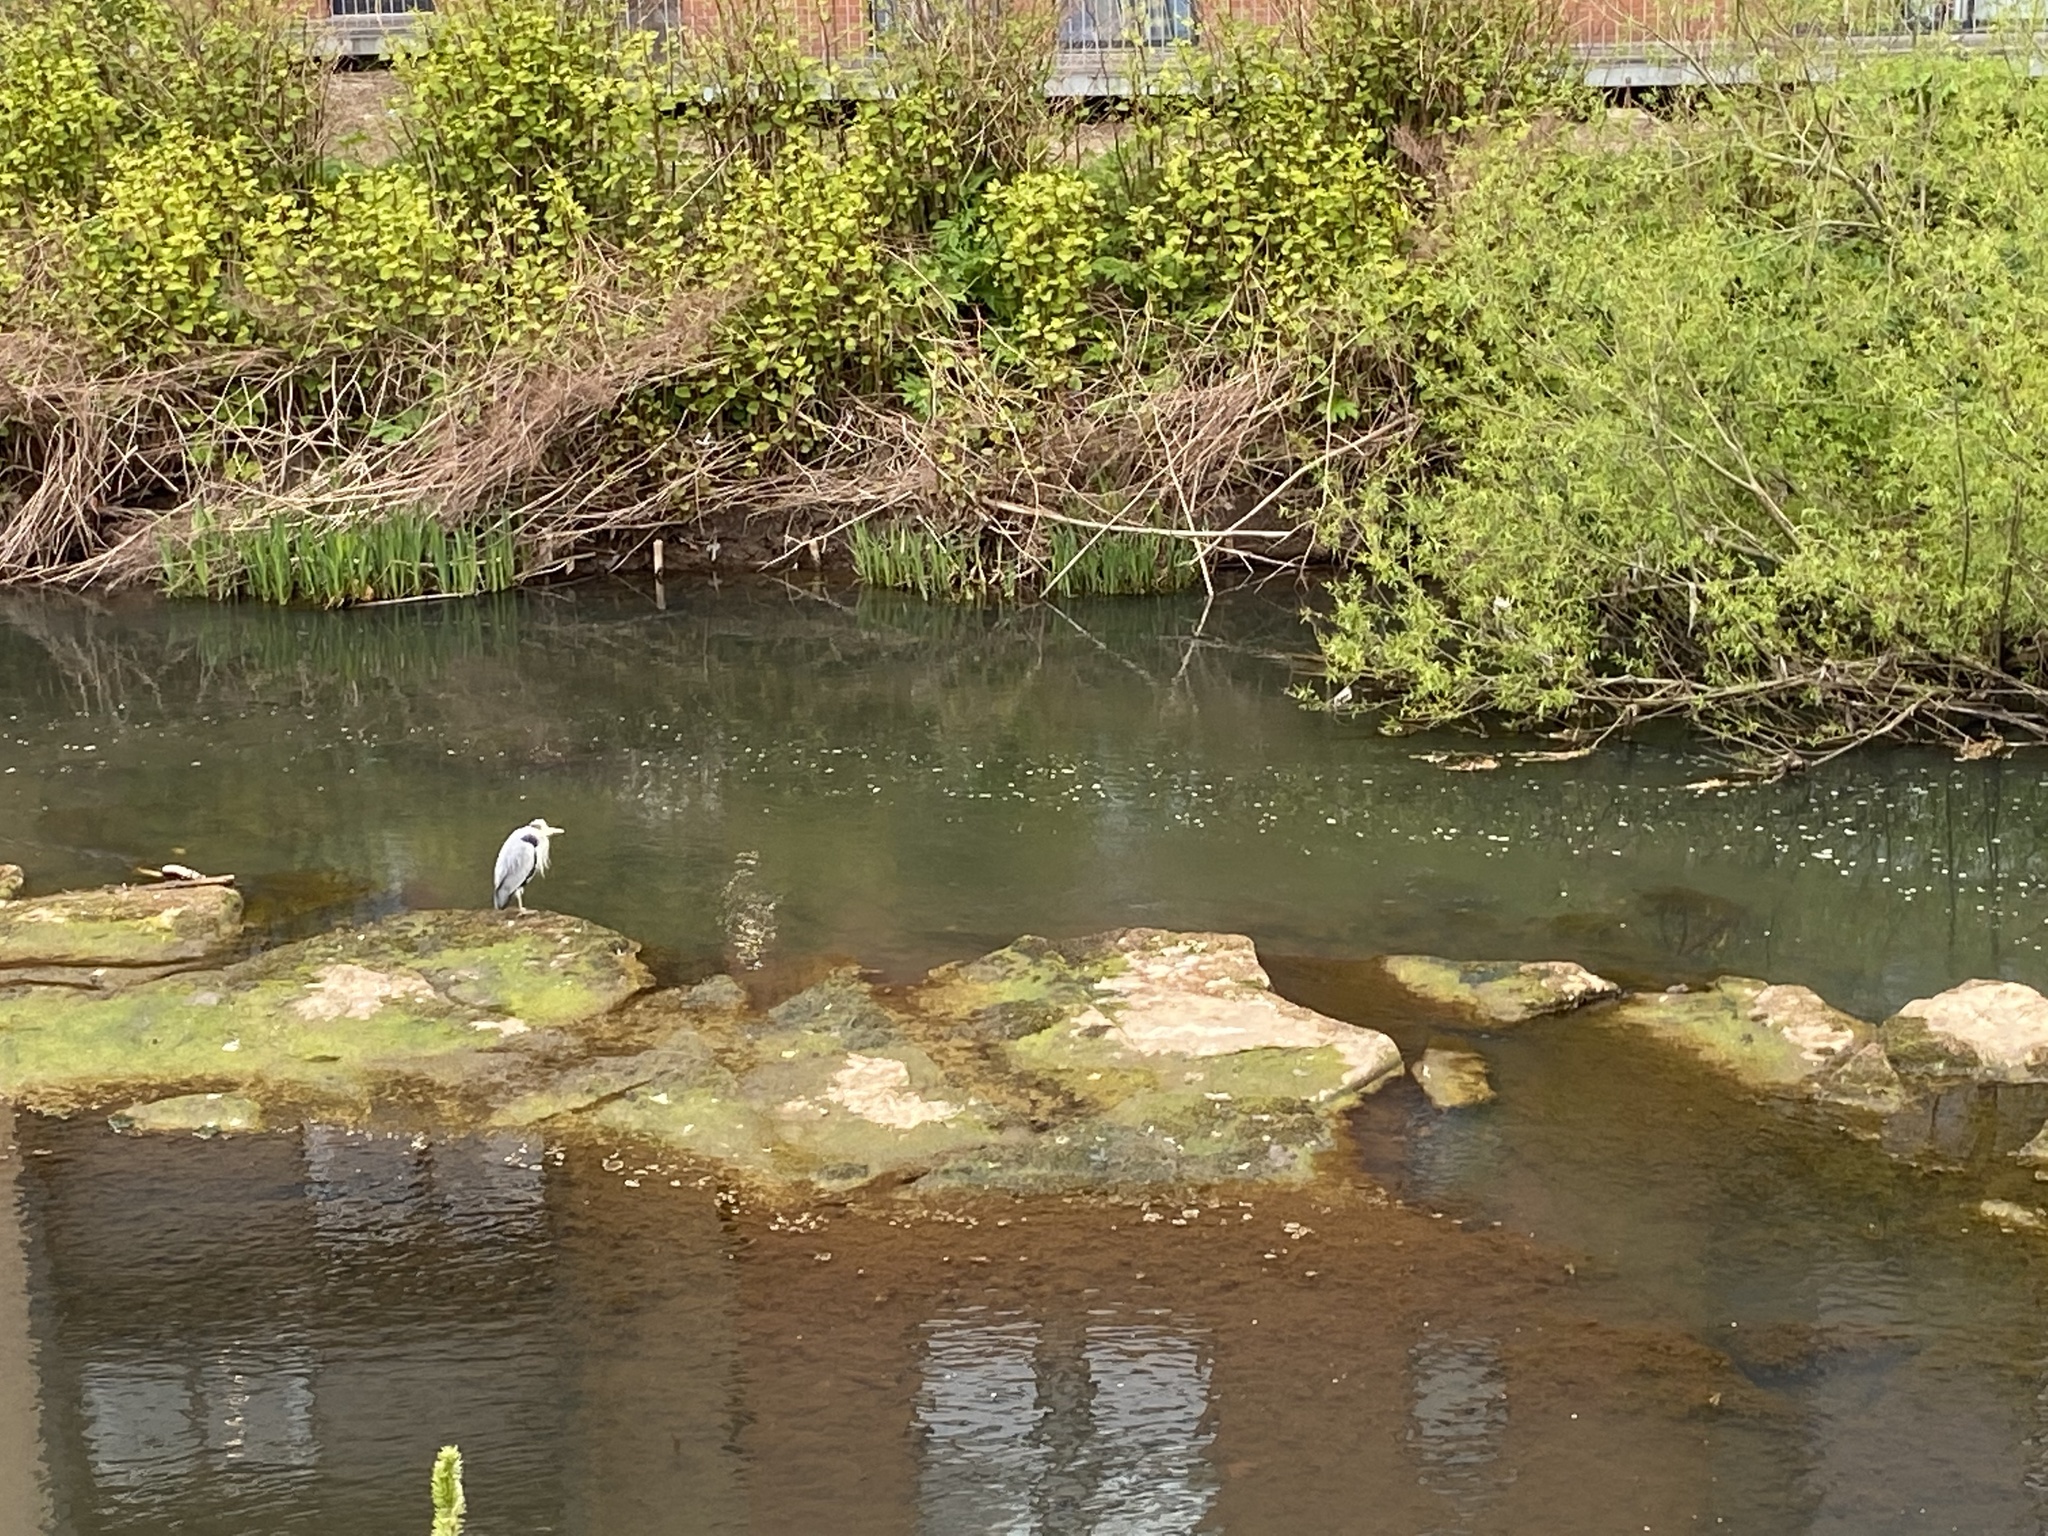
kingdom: Animalia
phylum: Chordata
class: Aves
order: Pelecaniformes
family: Ardeidae
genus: Ardea
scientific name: Ardea cinerea
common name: Grey heron
